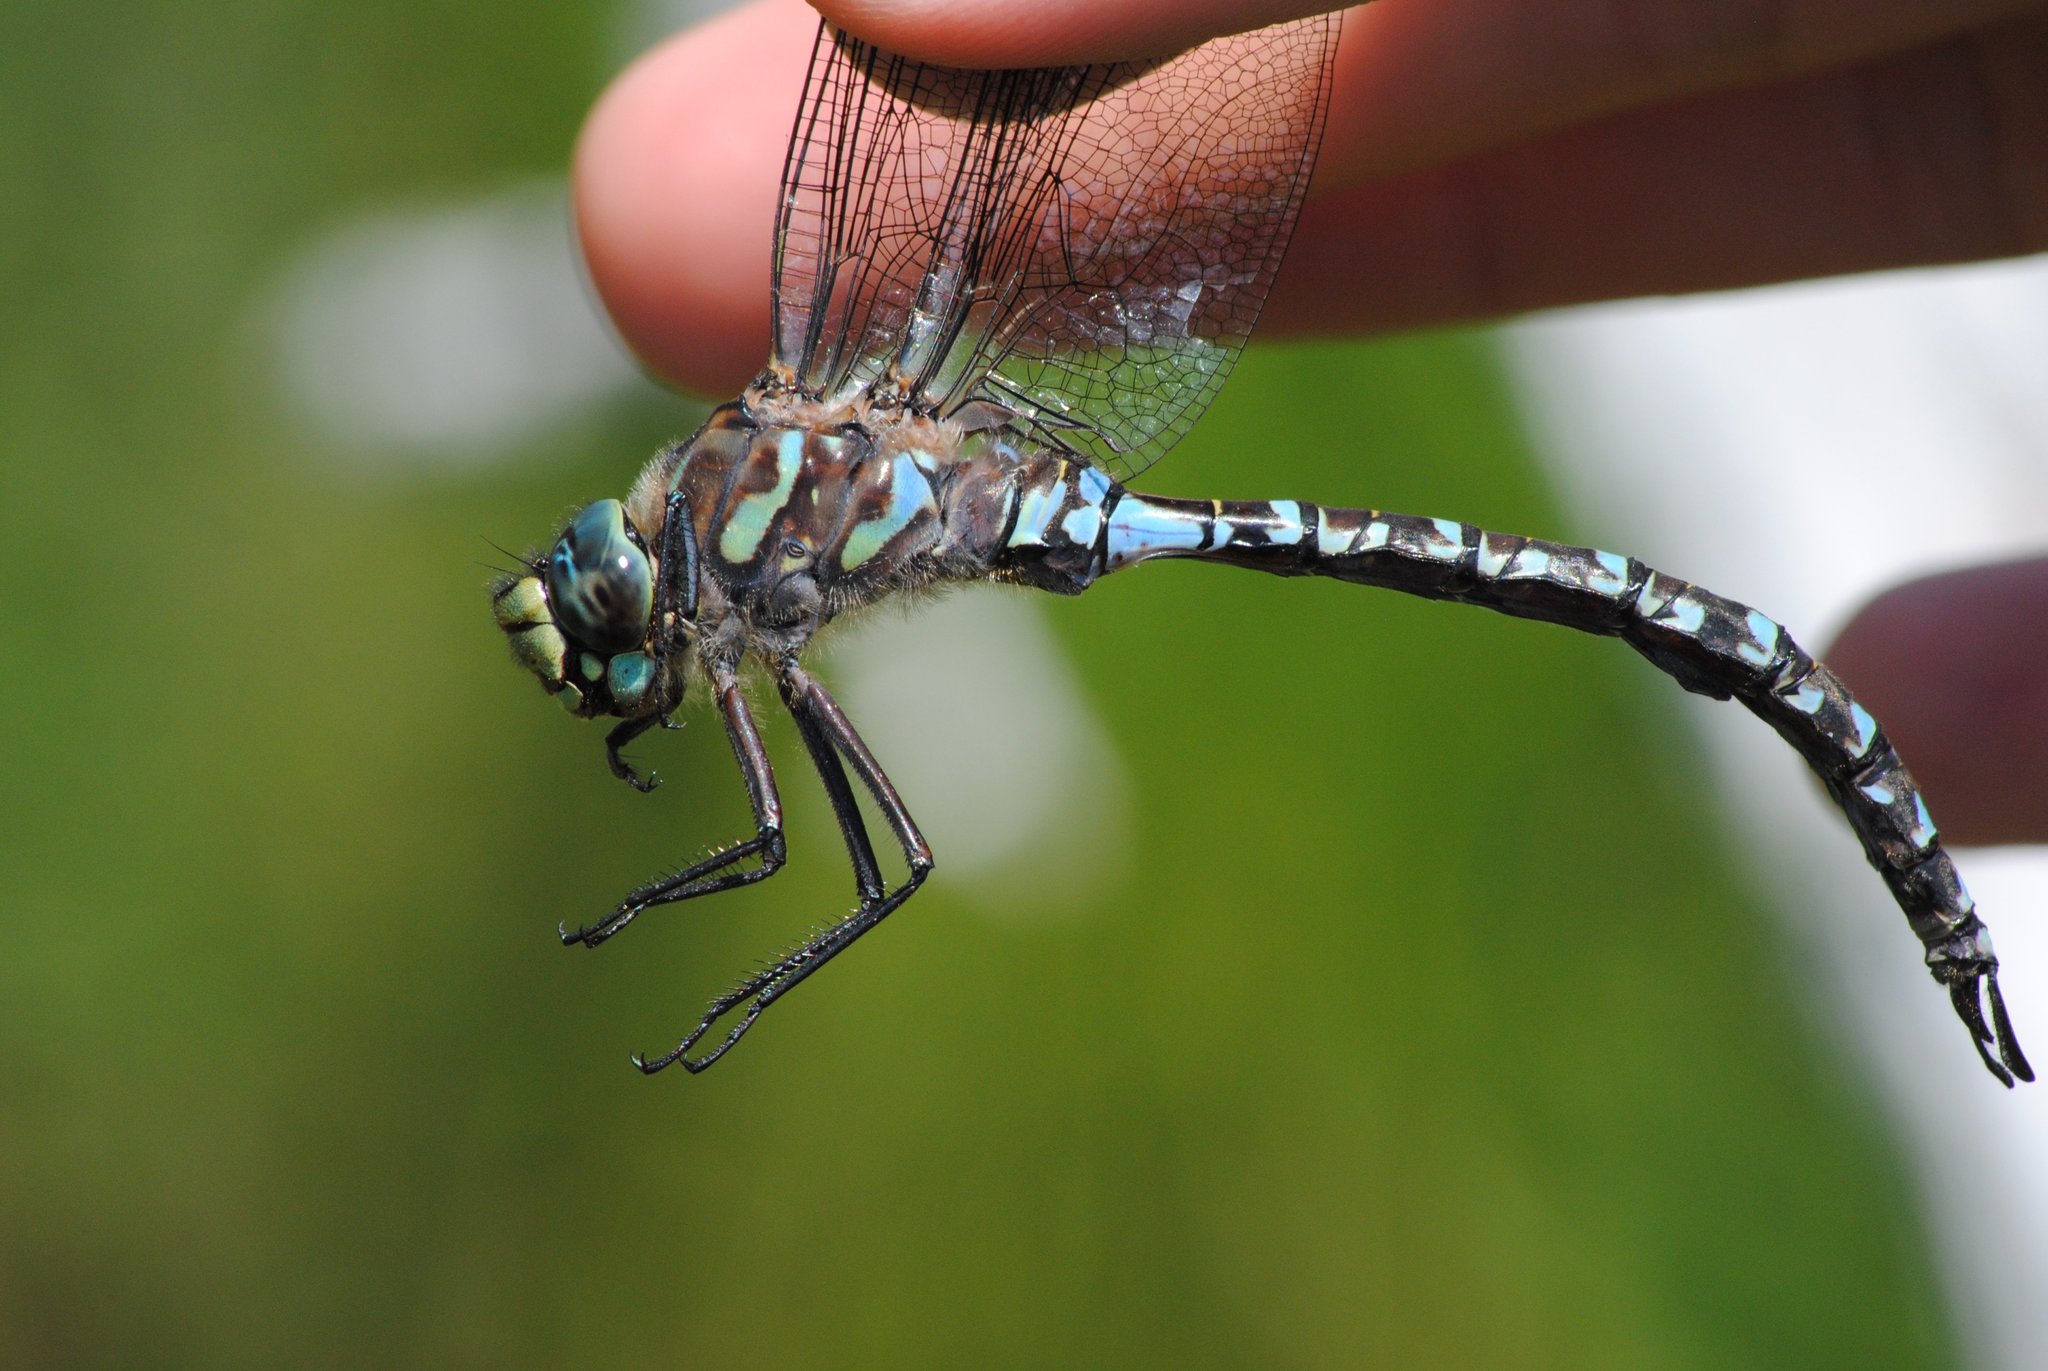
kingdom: Animalia
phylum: Arthropoda
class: Insecta
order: Odonata
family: Aeshnidae
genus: Aeshna
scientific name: Aeshna eremita
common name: Lake darner
